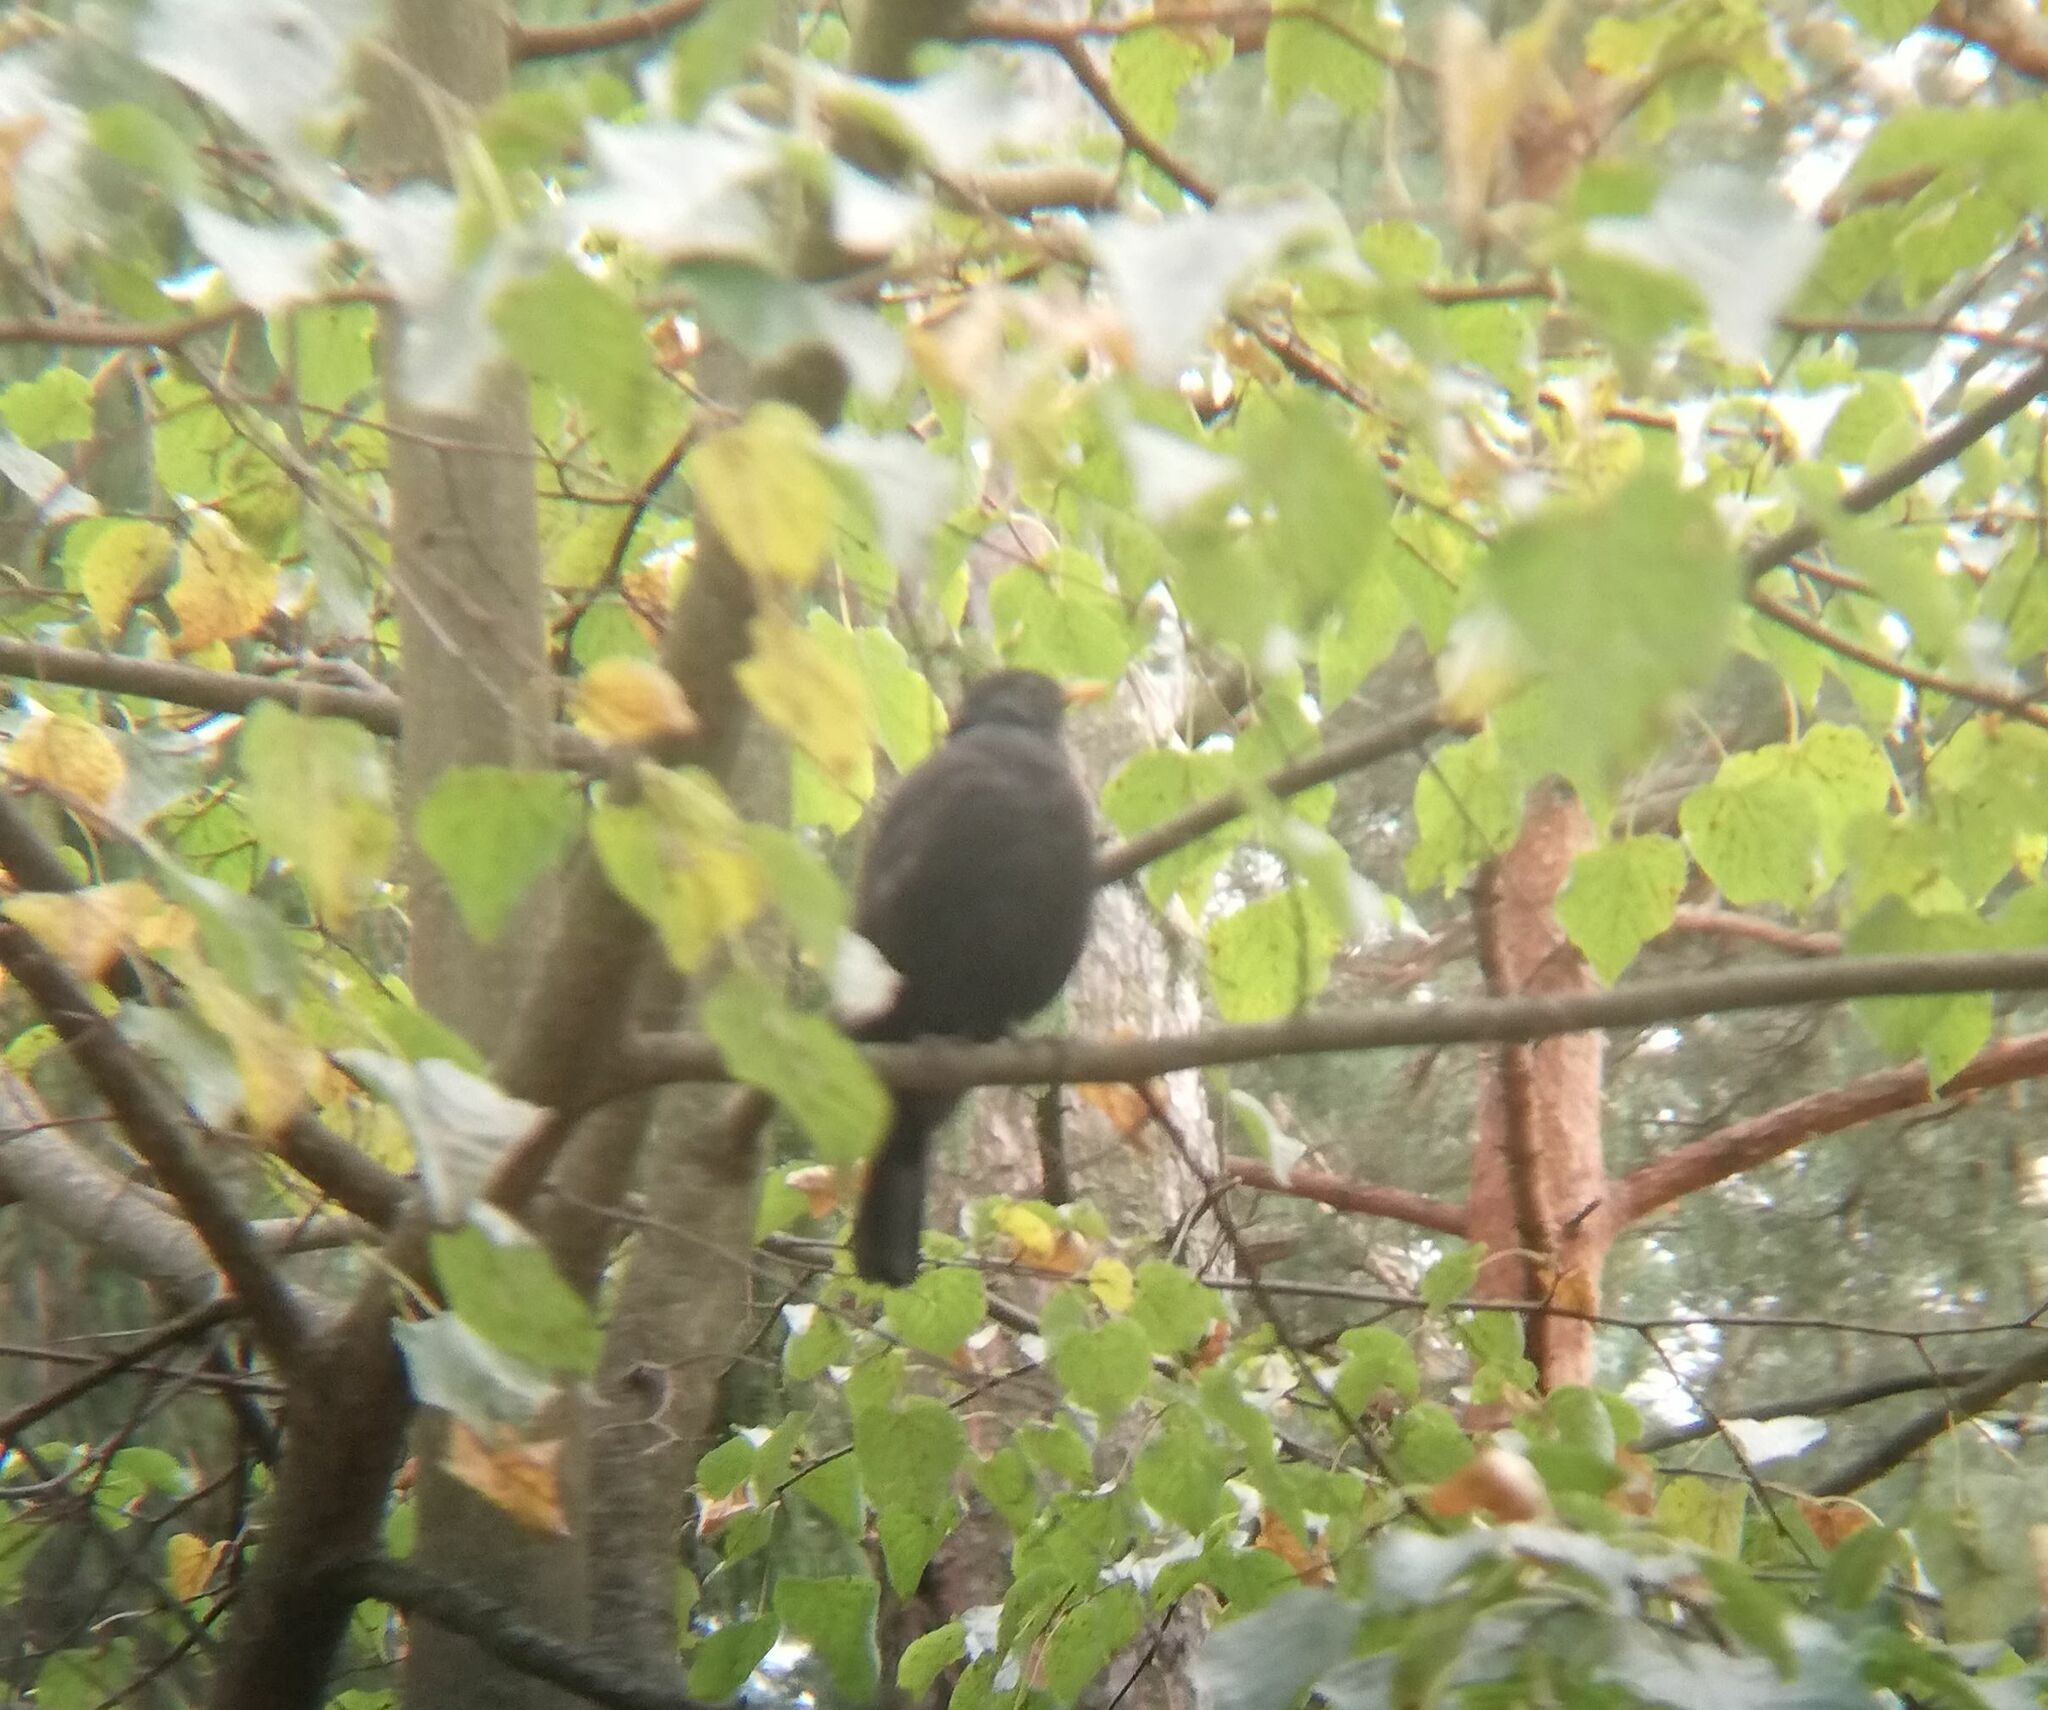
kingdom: Animalia
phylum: Chordata
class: Aves
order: Passeriformes
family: Turdidae
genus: Turdus
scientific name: Turdus merula
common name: Common blackbird
